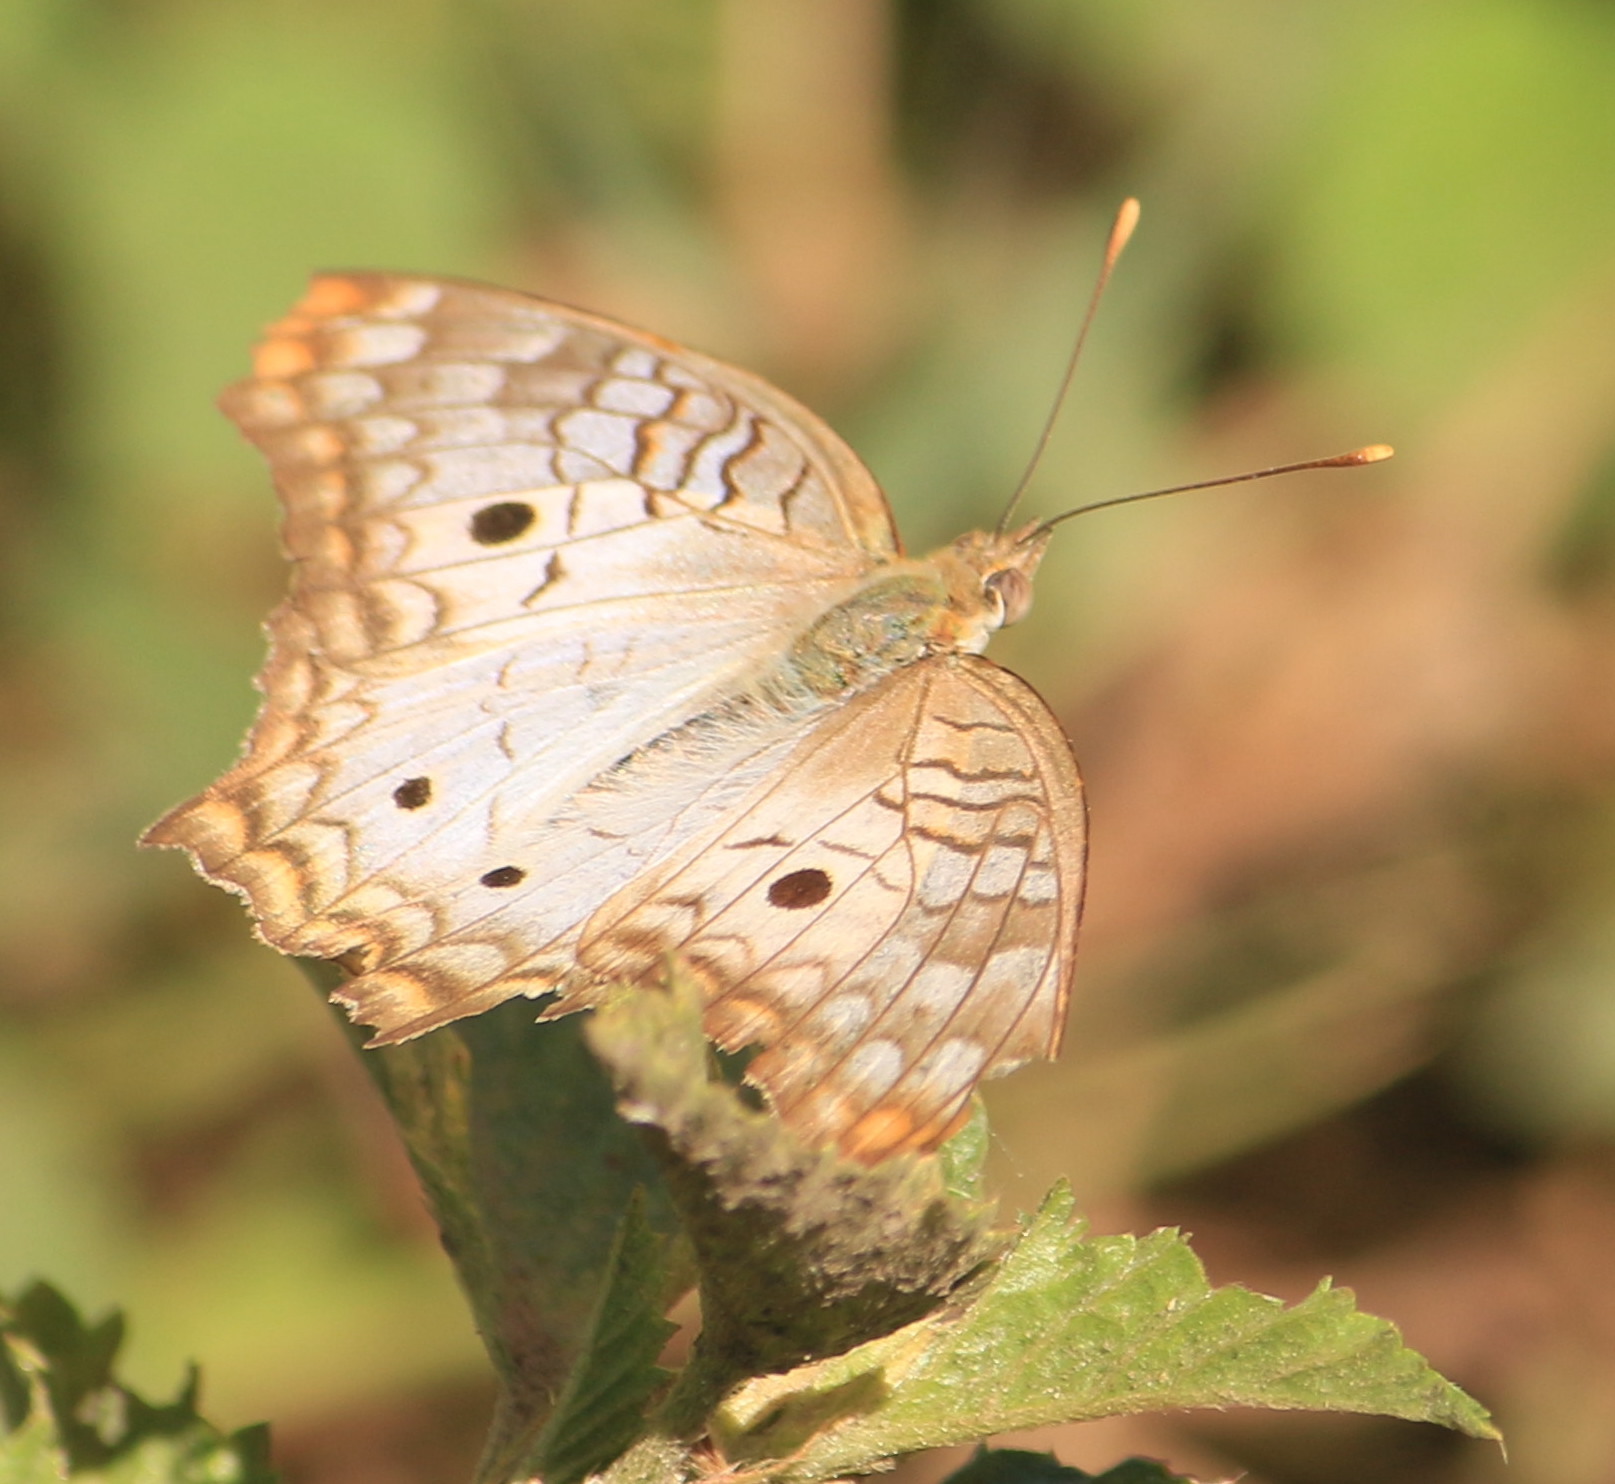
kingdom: Animalia
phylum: Arthropoda
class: Insecta
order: Lepidoptera
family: Nymphalidae
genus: Anartia
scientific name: Anartia jatrophae
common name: White peacock
